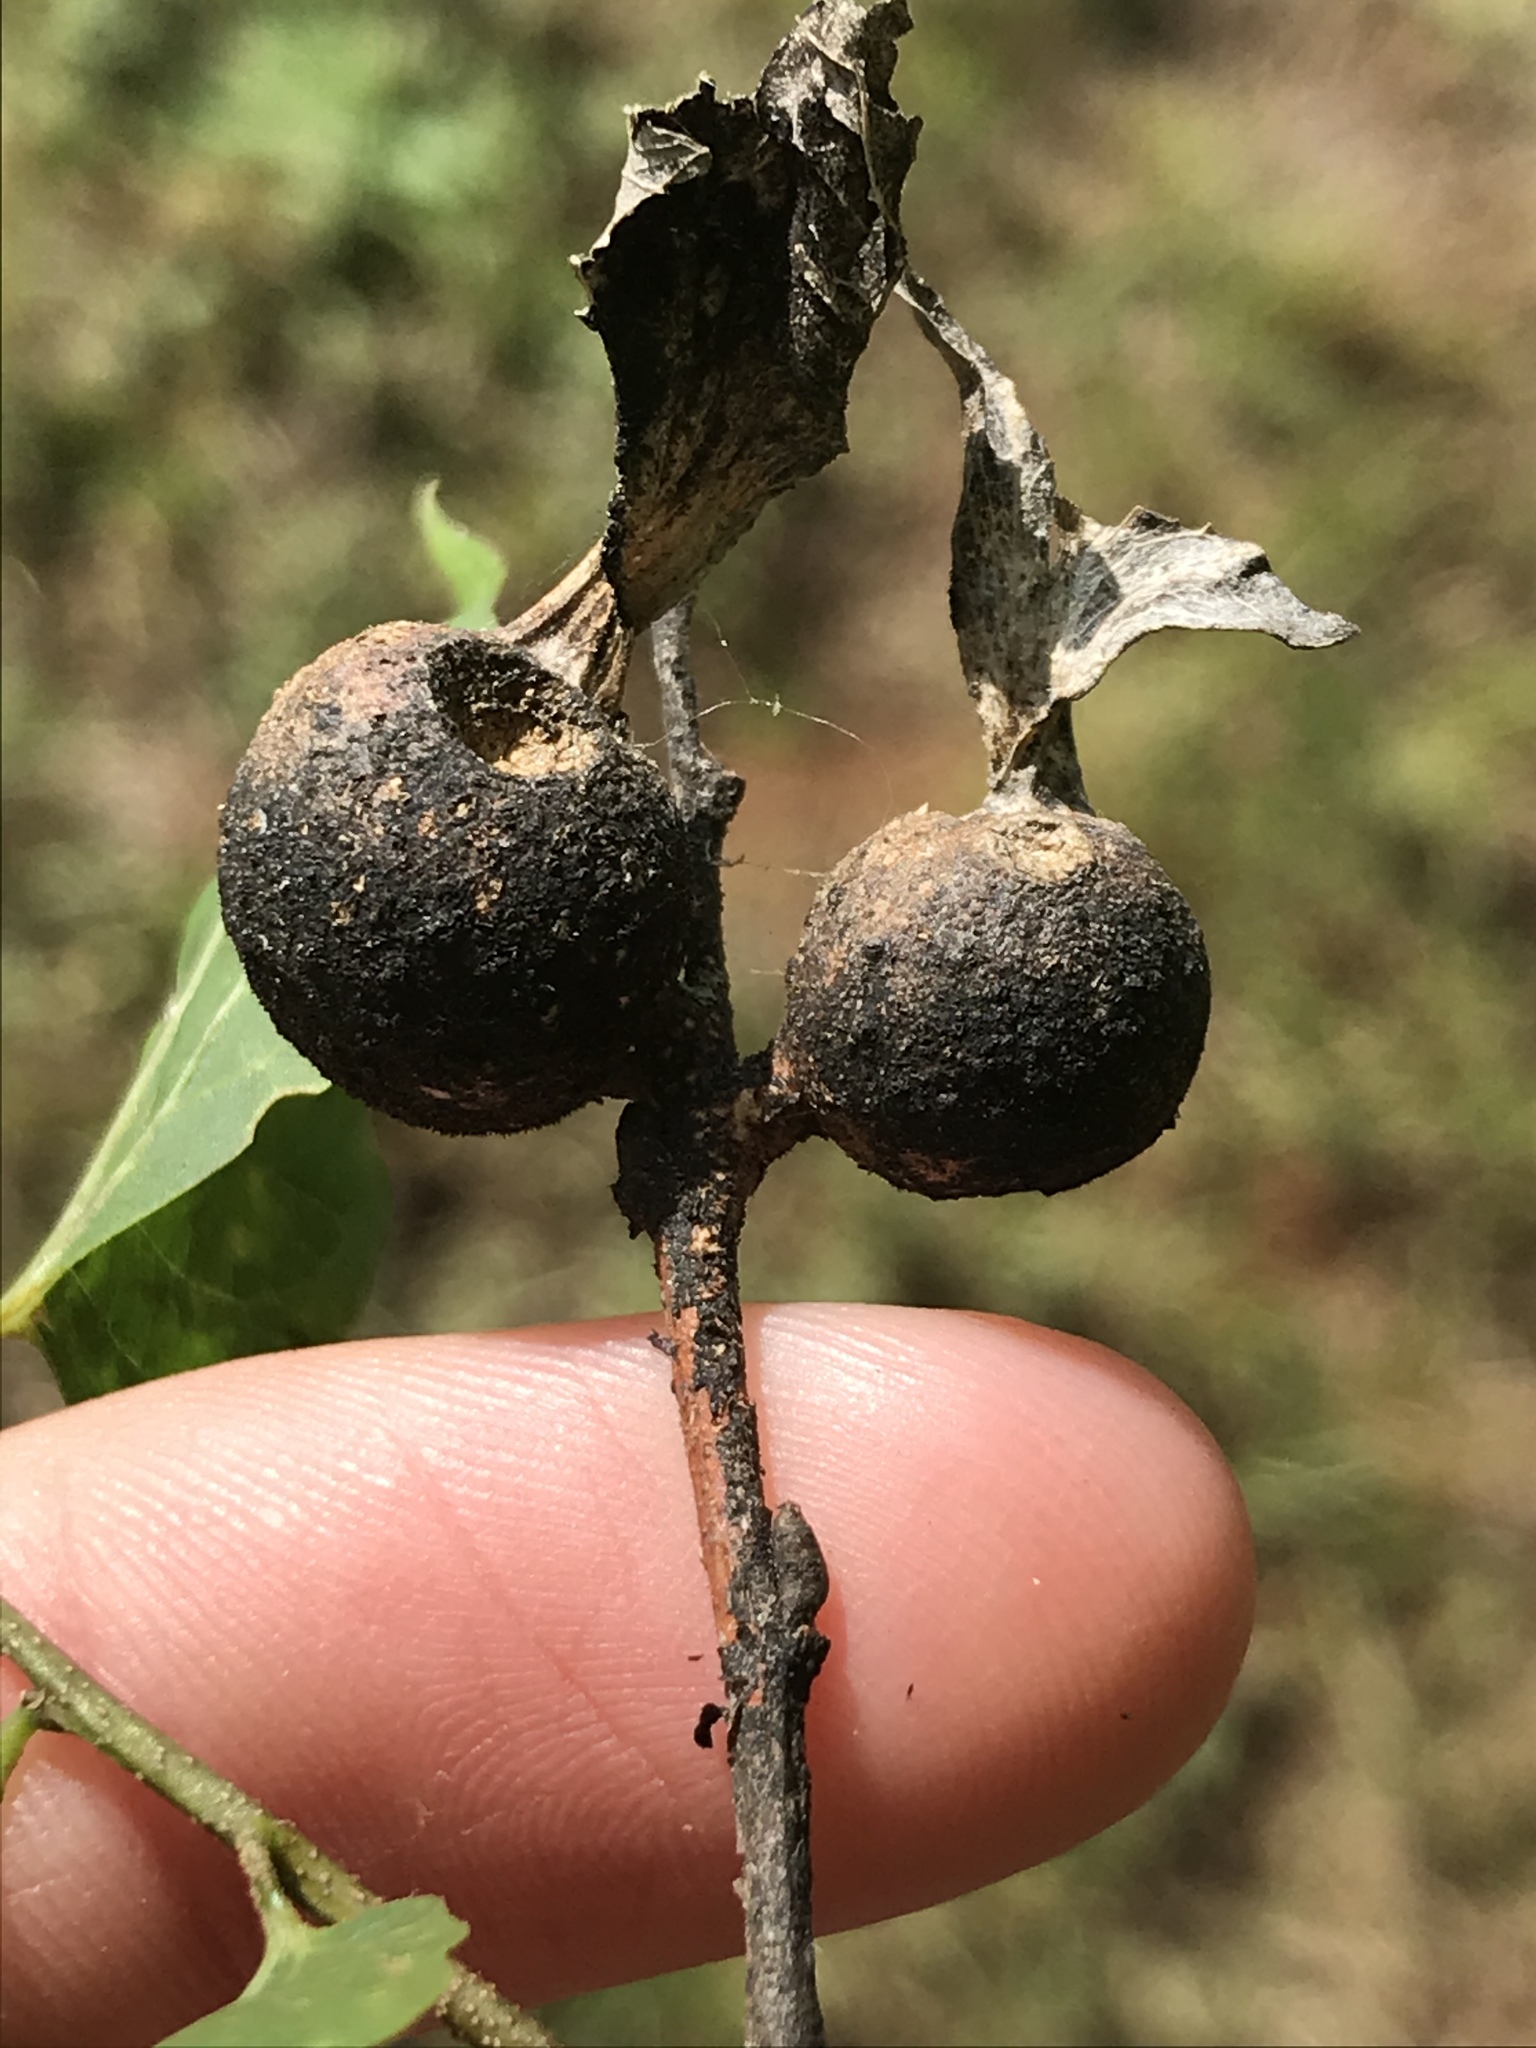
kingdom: Animalia
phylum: Arthropoda
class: Insecta
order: Hemiptera
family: Aphalaridae
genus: Pachypsylla
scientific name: Pachypsylla venusta
